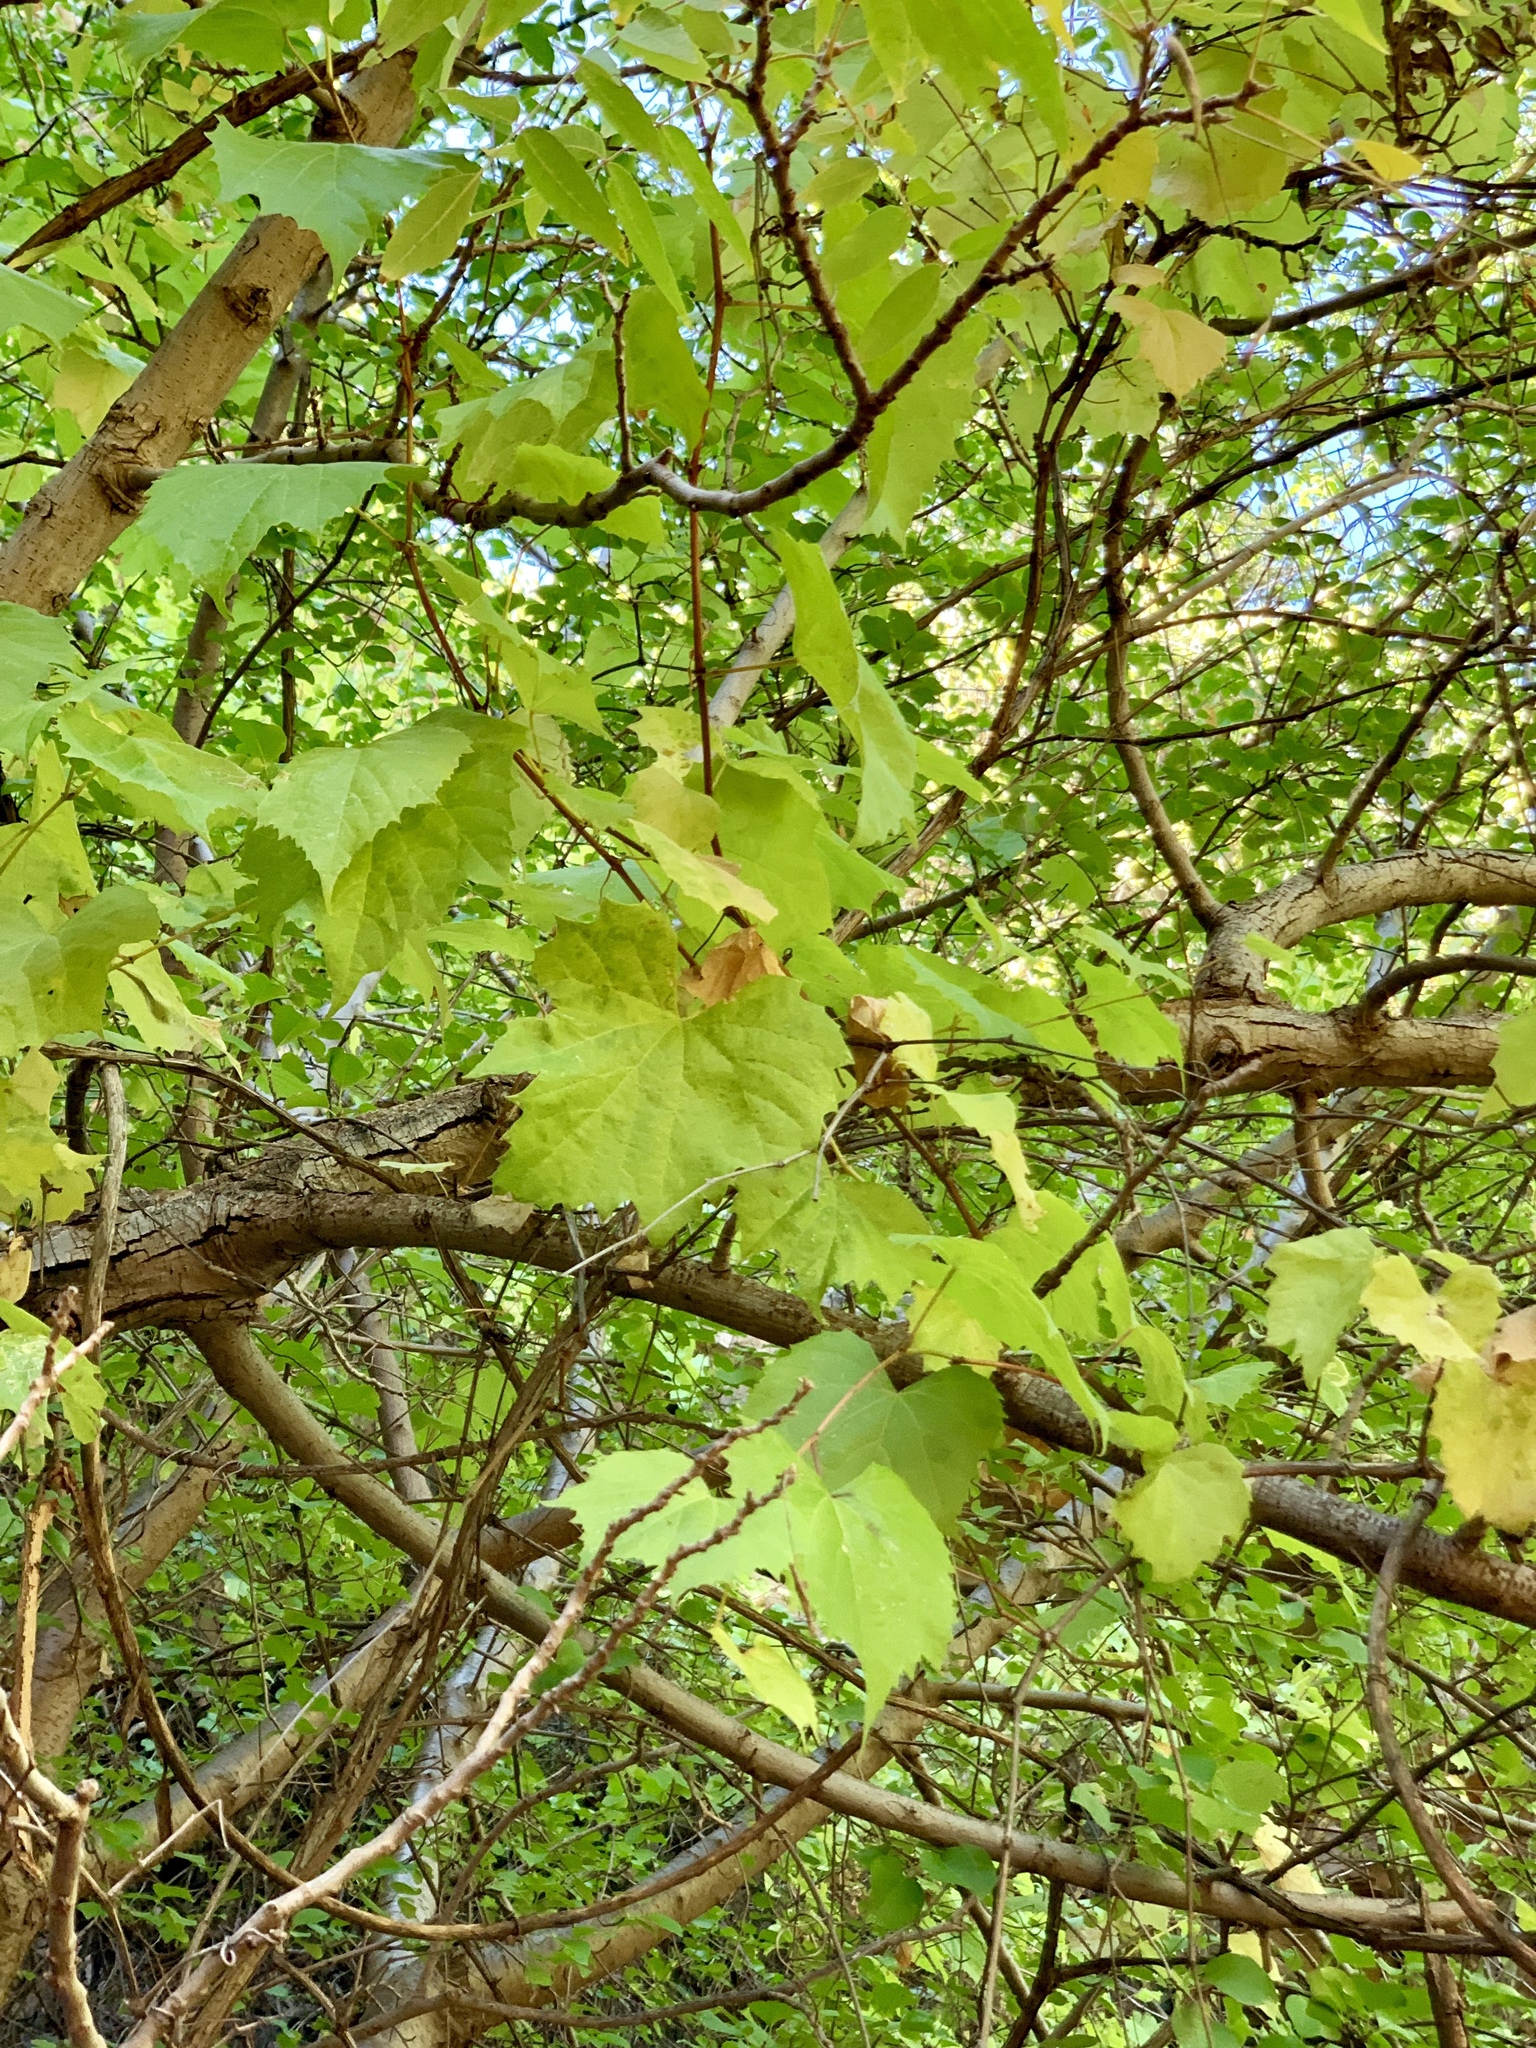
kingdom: Plantae
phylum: Tracheophyta
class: Magnoliopsida
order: Vitales
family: Vitaceae
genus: Vitis
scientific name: Vitis arizonica
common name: Canyon grape
